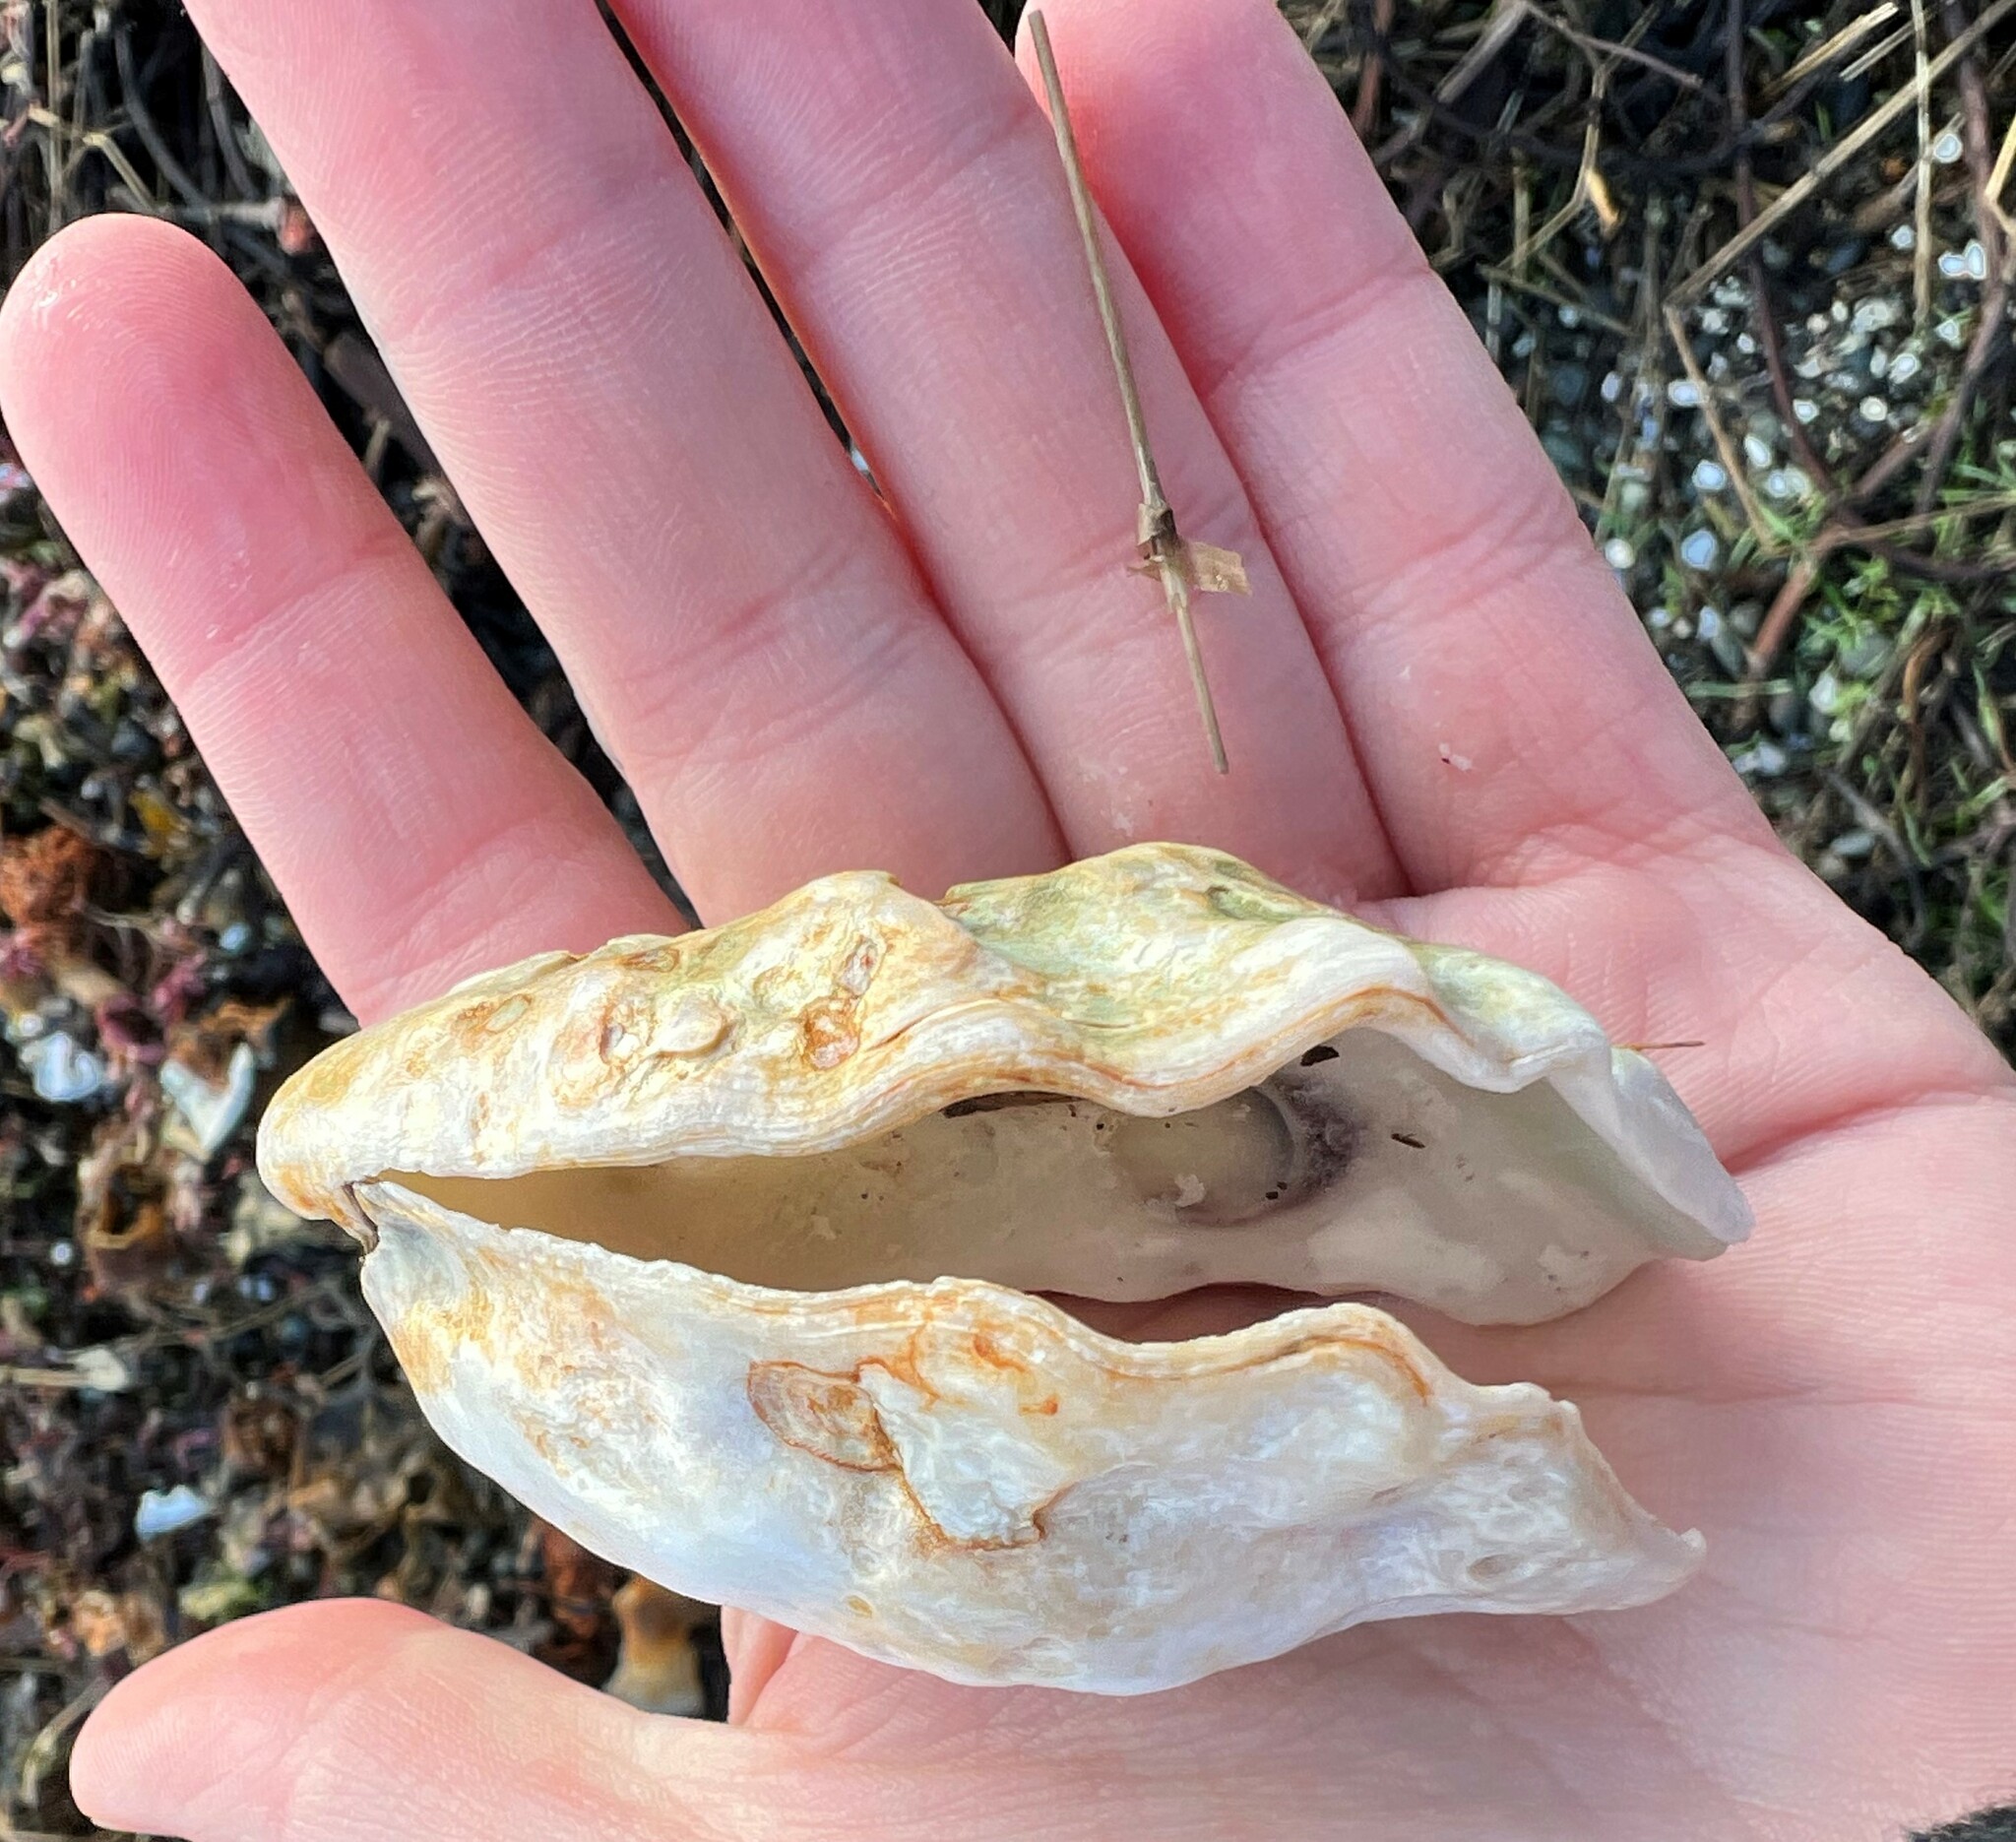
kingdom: Animalia
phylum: Mollusca
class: Bivalvia
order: Ostreida
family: Ostreidae
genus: Magallana
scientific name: Magallana gigas
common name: Pacific oyster
